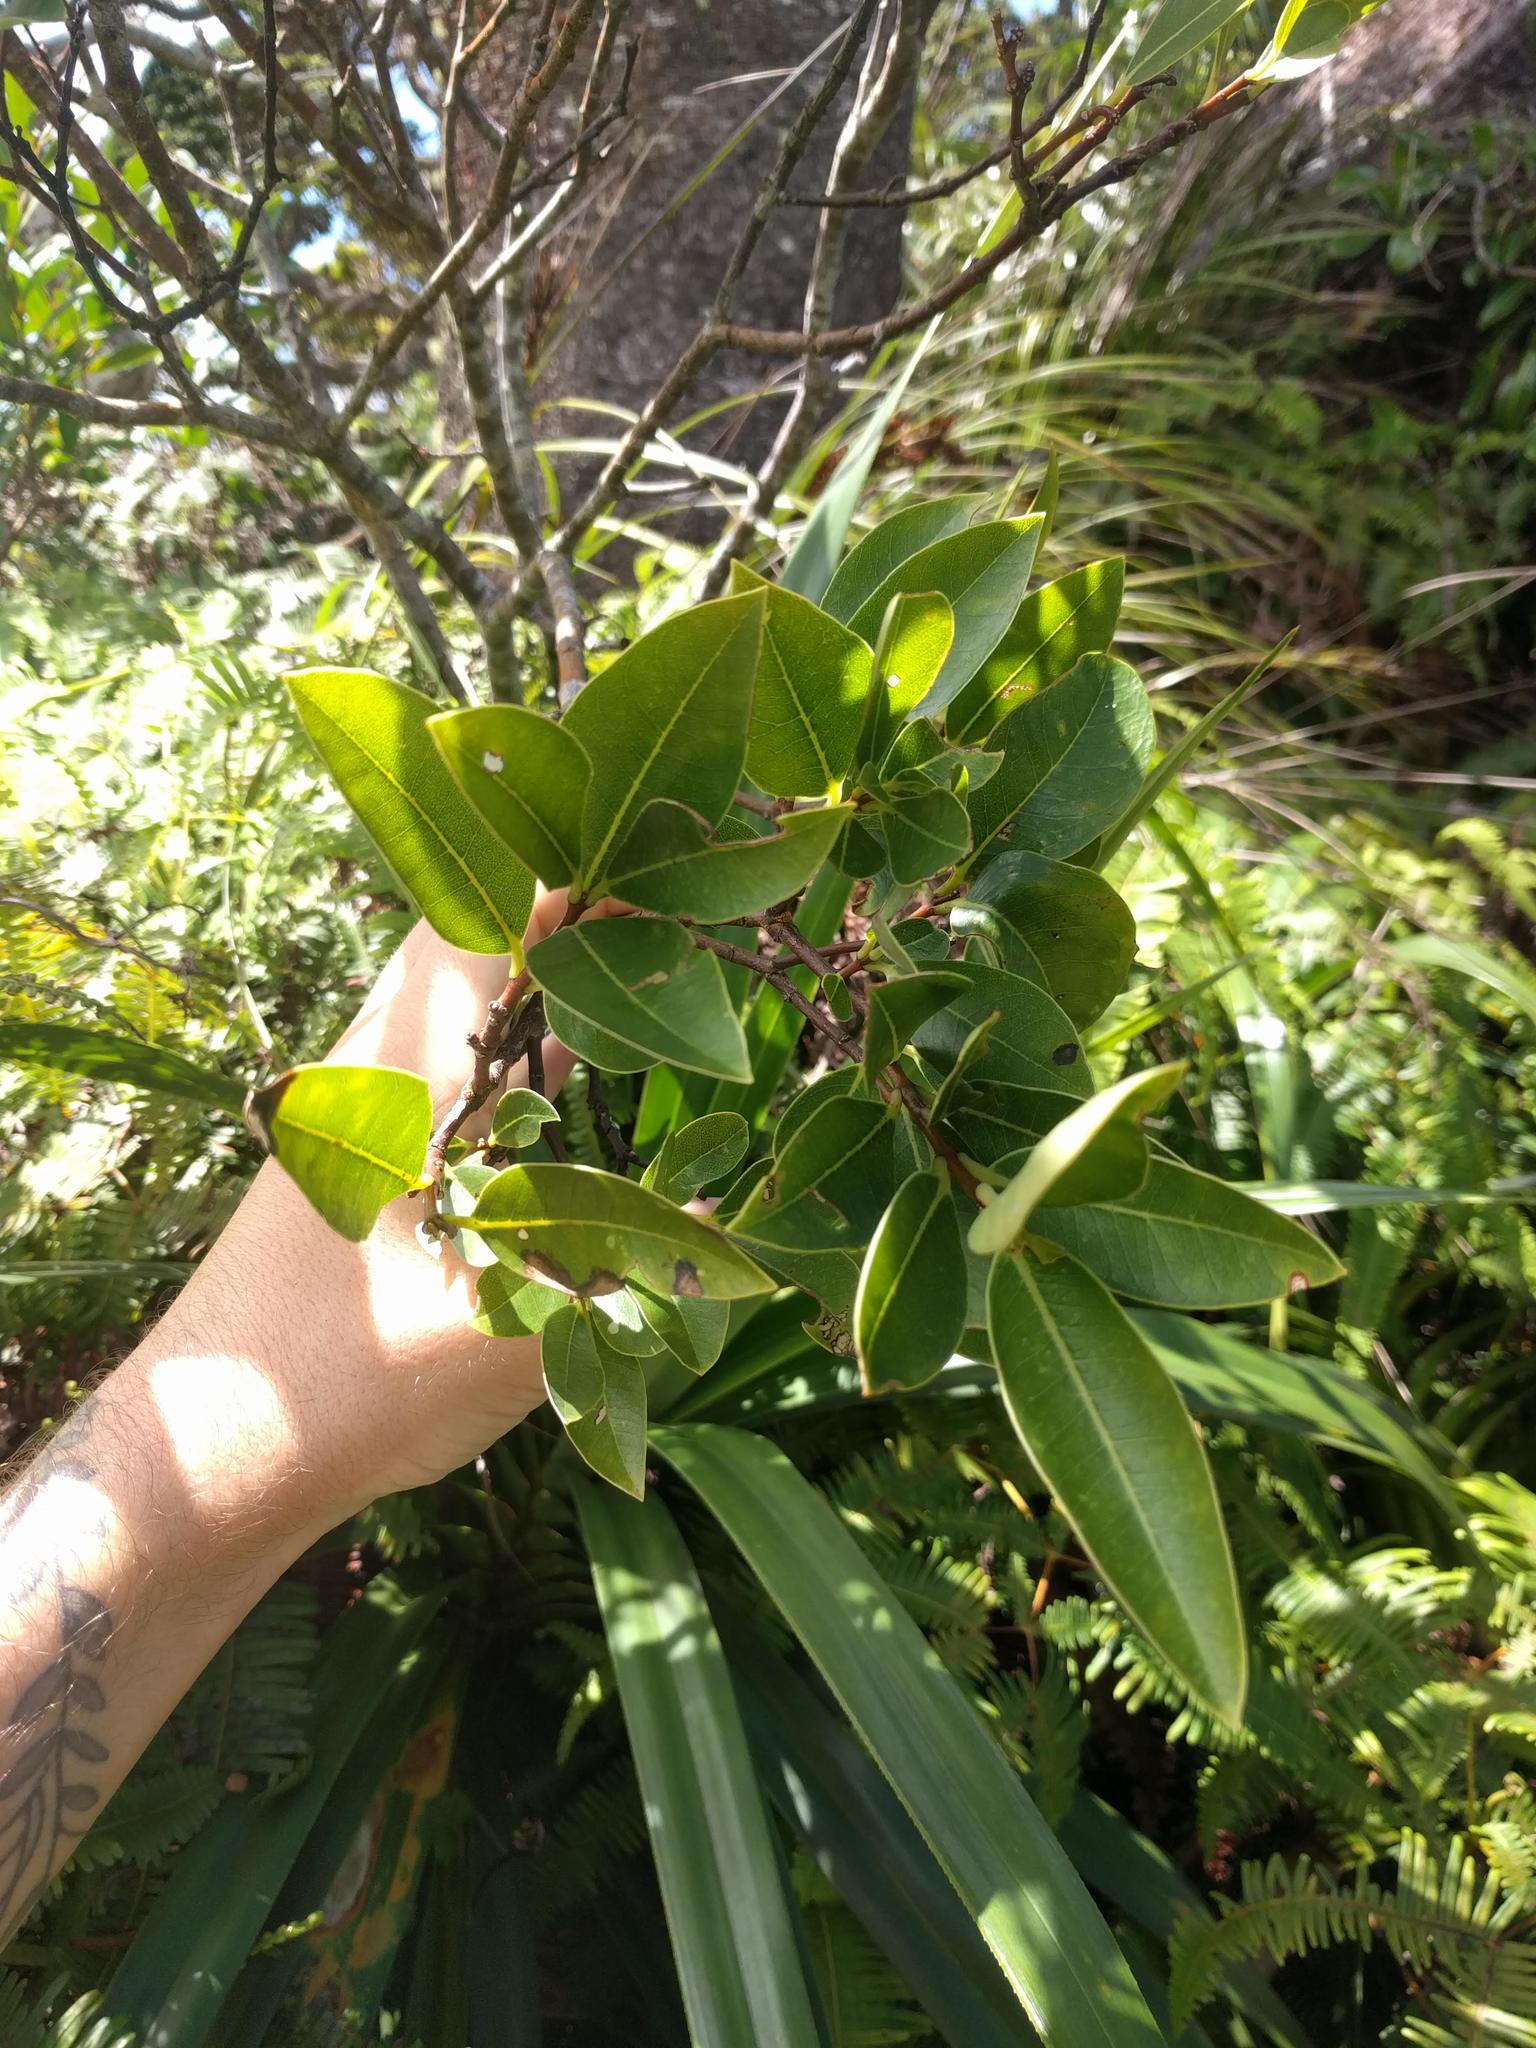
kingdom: Plantae
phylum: Tracheophyta
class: Magnoliopsida
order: Malvales
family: Thymelaeaceae
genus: Wikstroemia
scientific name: Wikstroemia oahuensis
